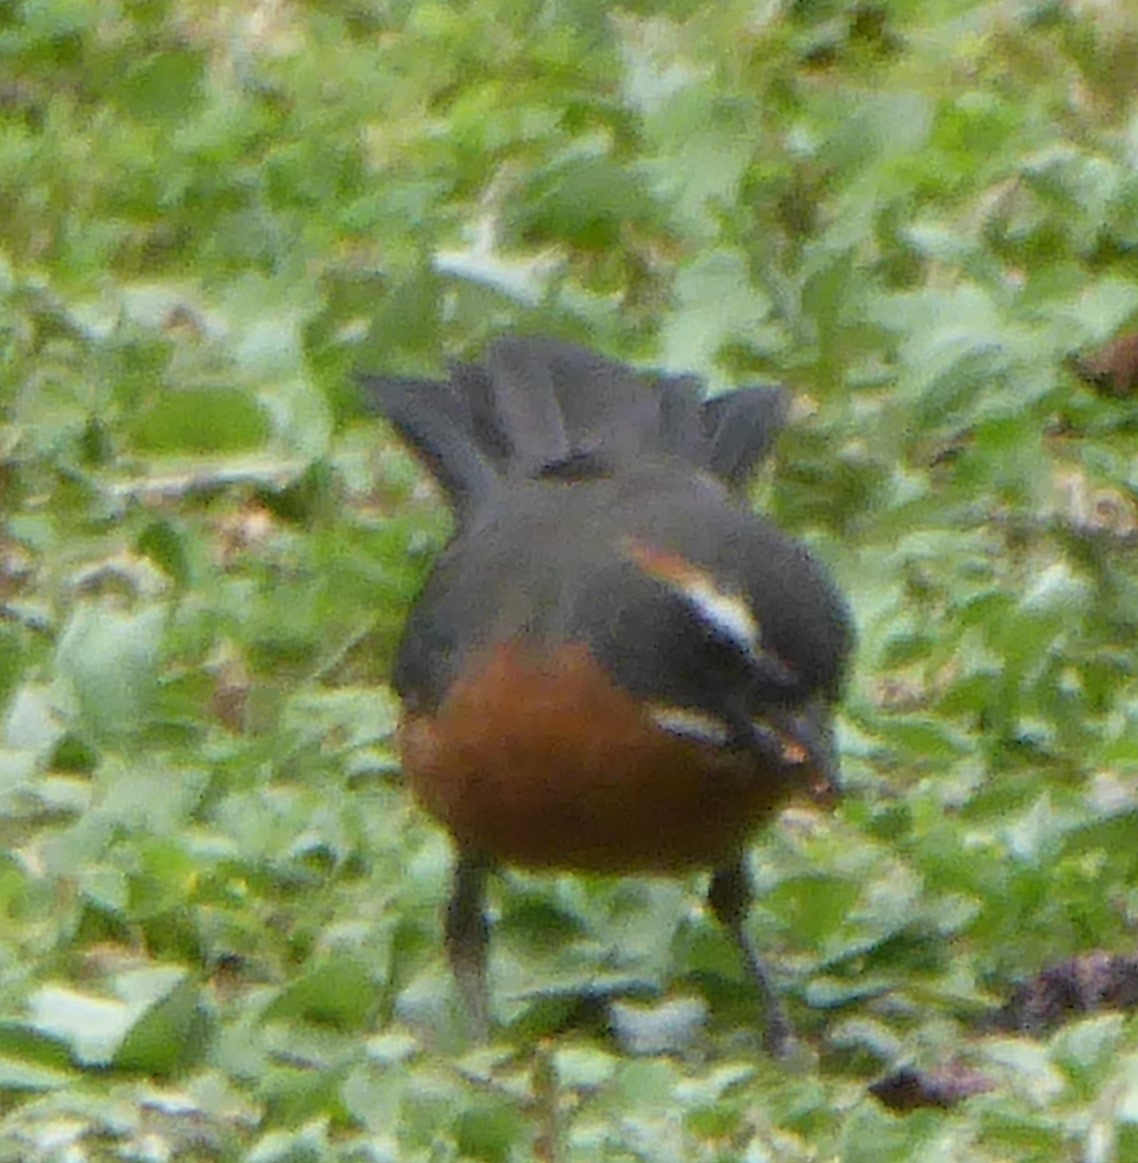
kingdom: Animalia
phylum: Chordata
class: Aves
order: Passeriformes
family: Thraupidae
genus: Poospiza
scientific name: Poospiza nigrorufa
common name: Black-and-rufous warbling finch
